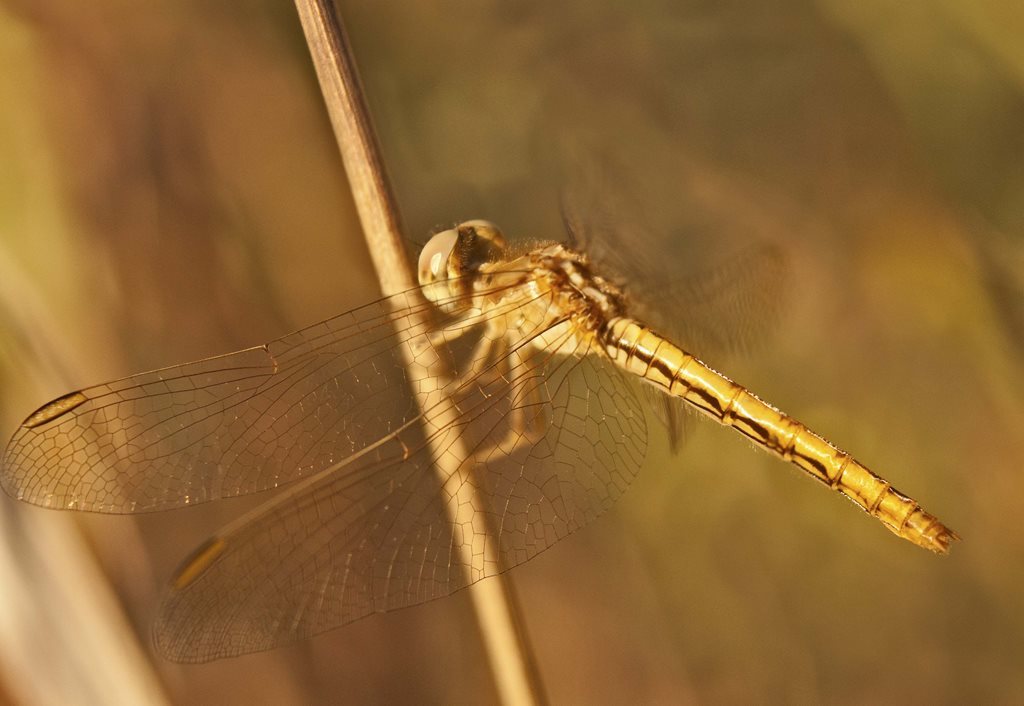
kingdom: Animalia
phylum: Arthropoda
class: Insecta
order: Odonata
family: Libellulidae
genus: Diplacodes
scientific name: Diplacodes haematodes
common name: Scarlet percher
